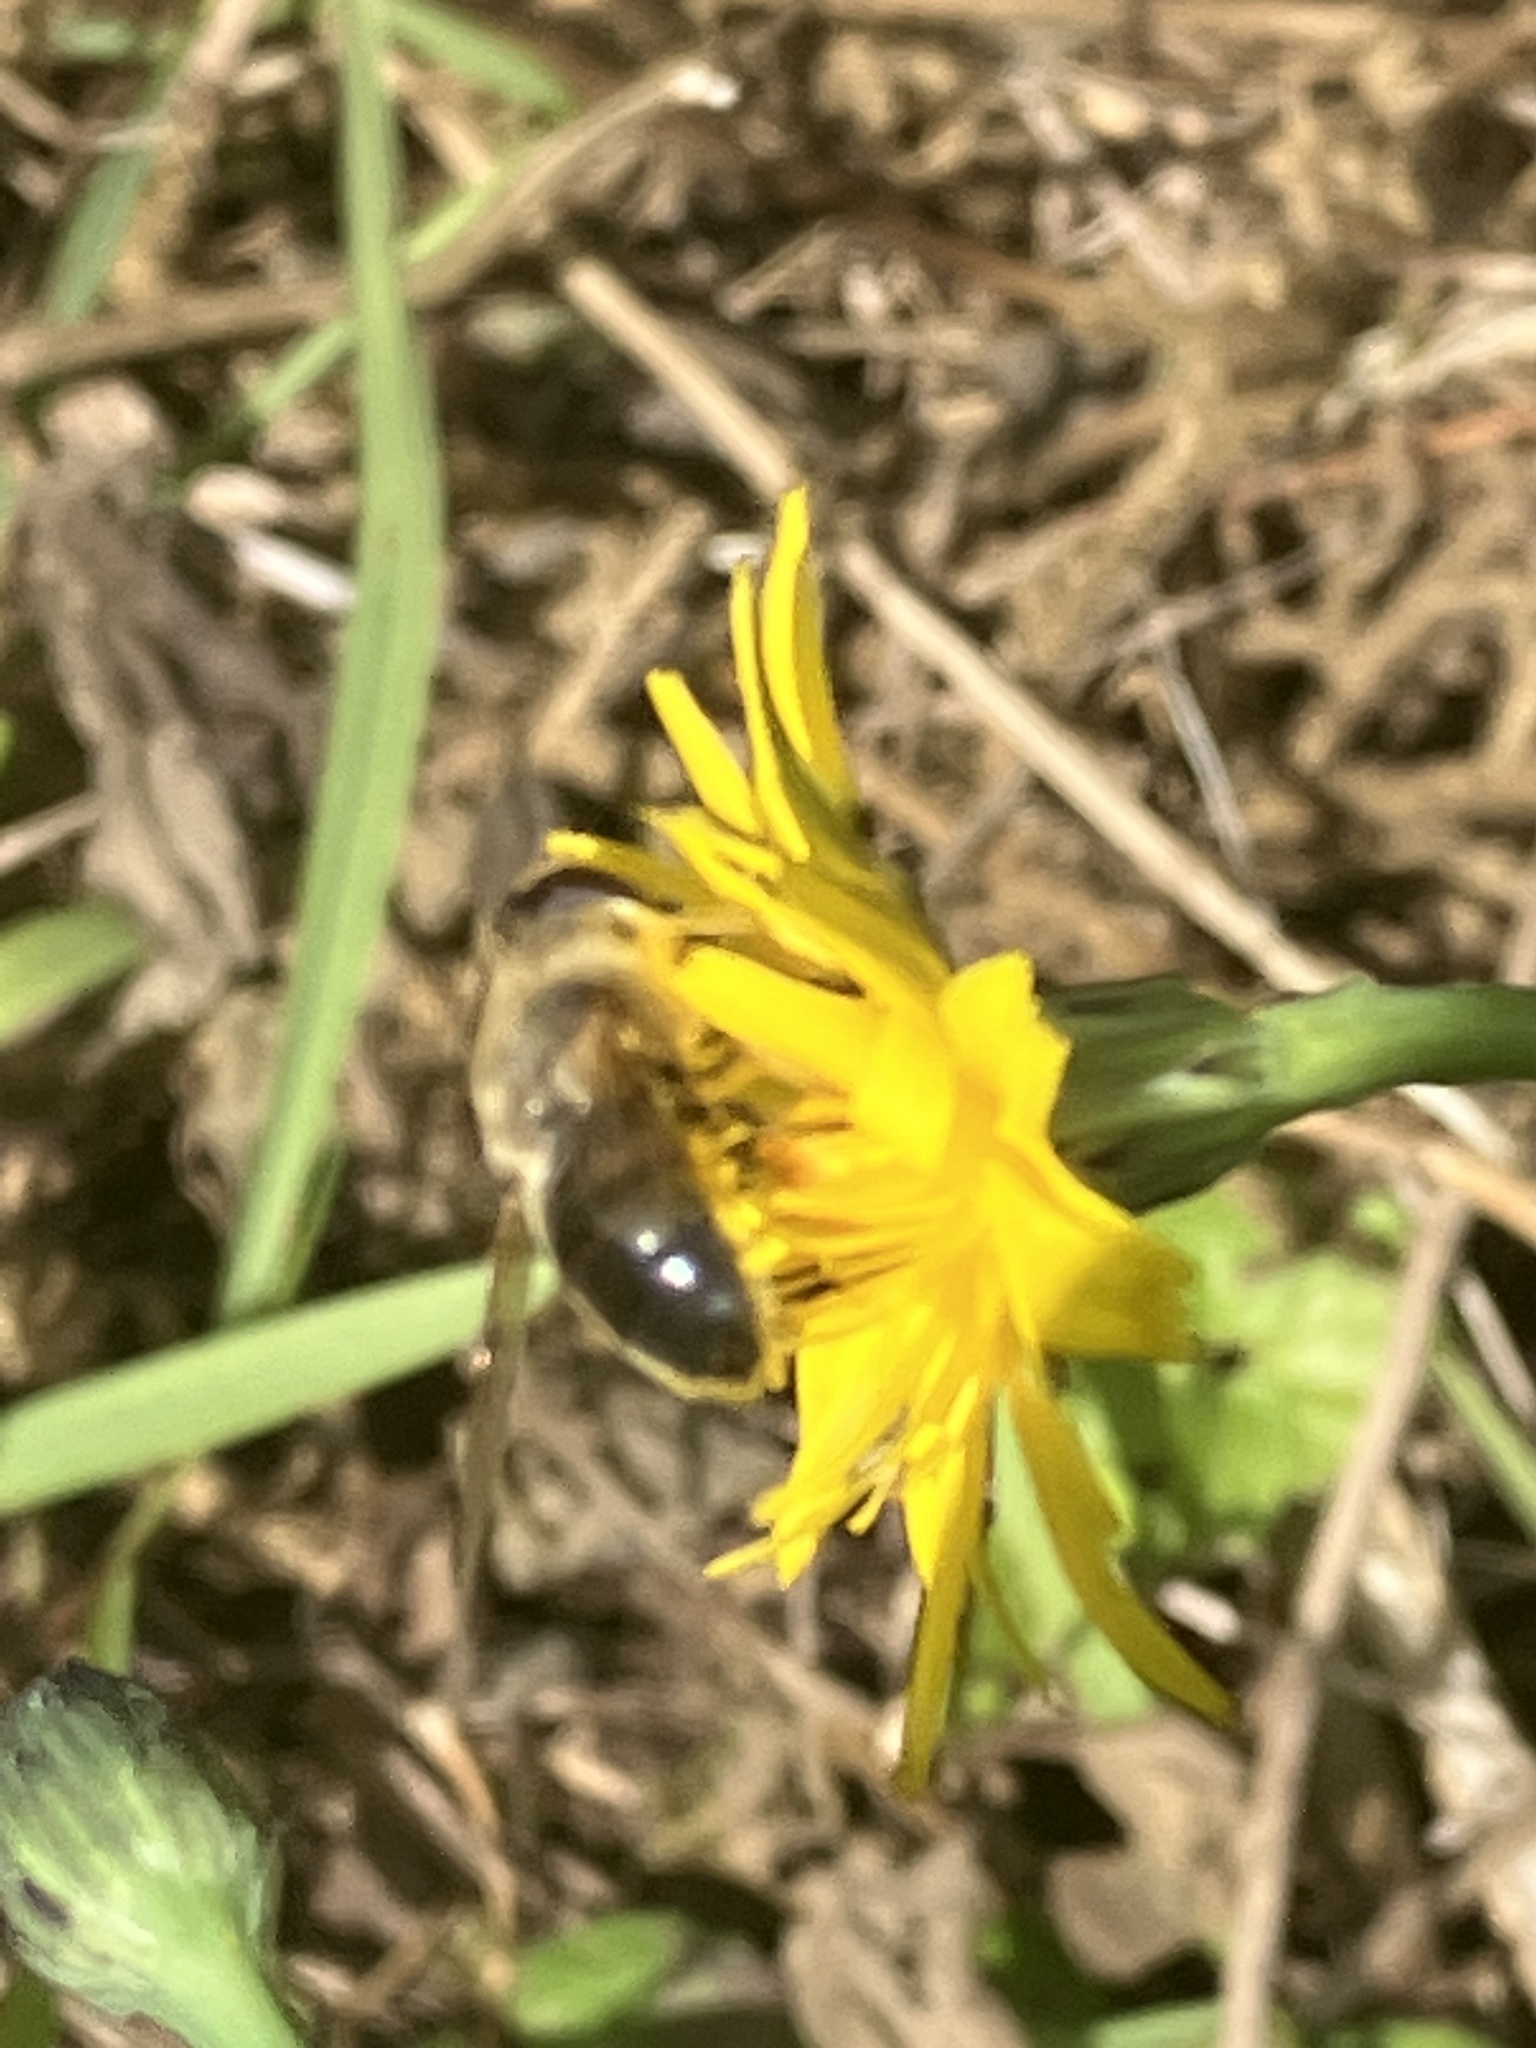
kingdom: Animalia
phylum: Arthropoda
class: Insecta
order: Diptera
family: Syrphidae
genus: Eristalis
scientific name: Eristalis tenax
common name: Drone fly
